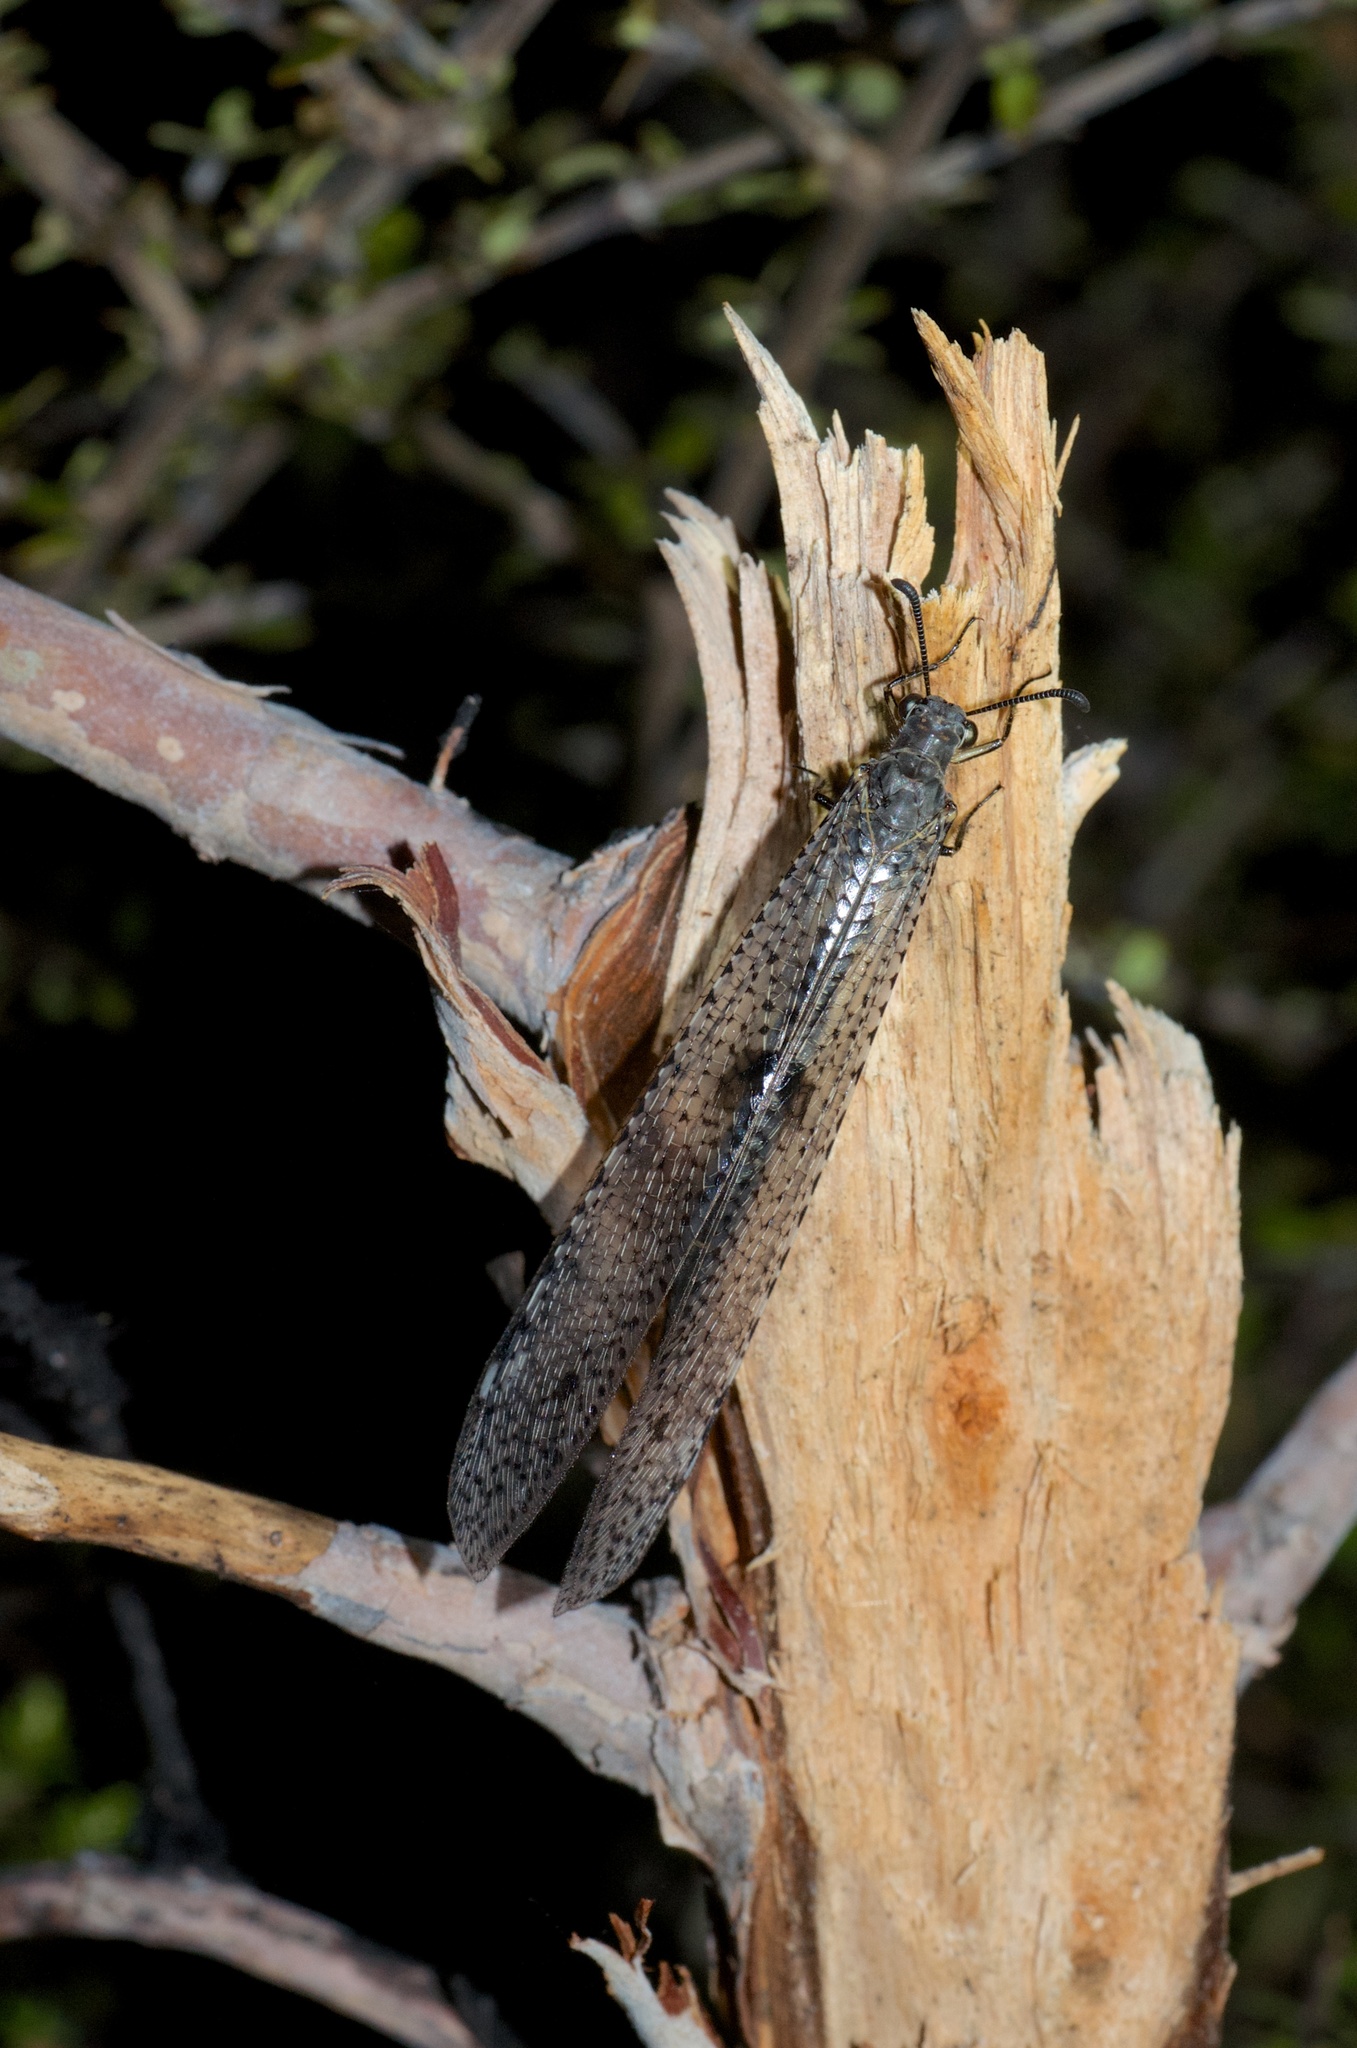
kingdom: Animalia
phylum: Arthropoda
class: Insecta
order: Neuroptera
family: Myrmeleontidae
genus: Weeleus
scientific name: Weeleus acutus
